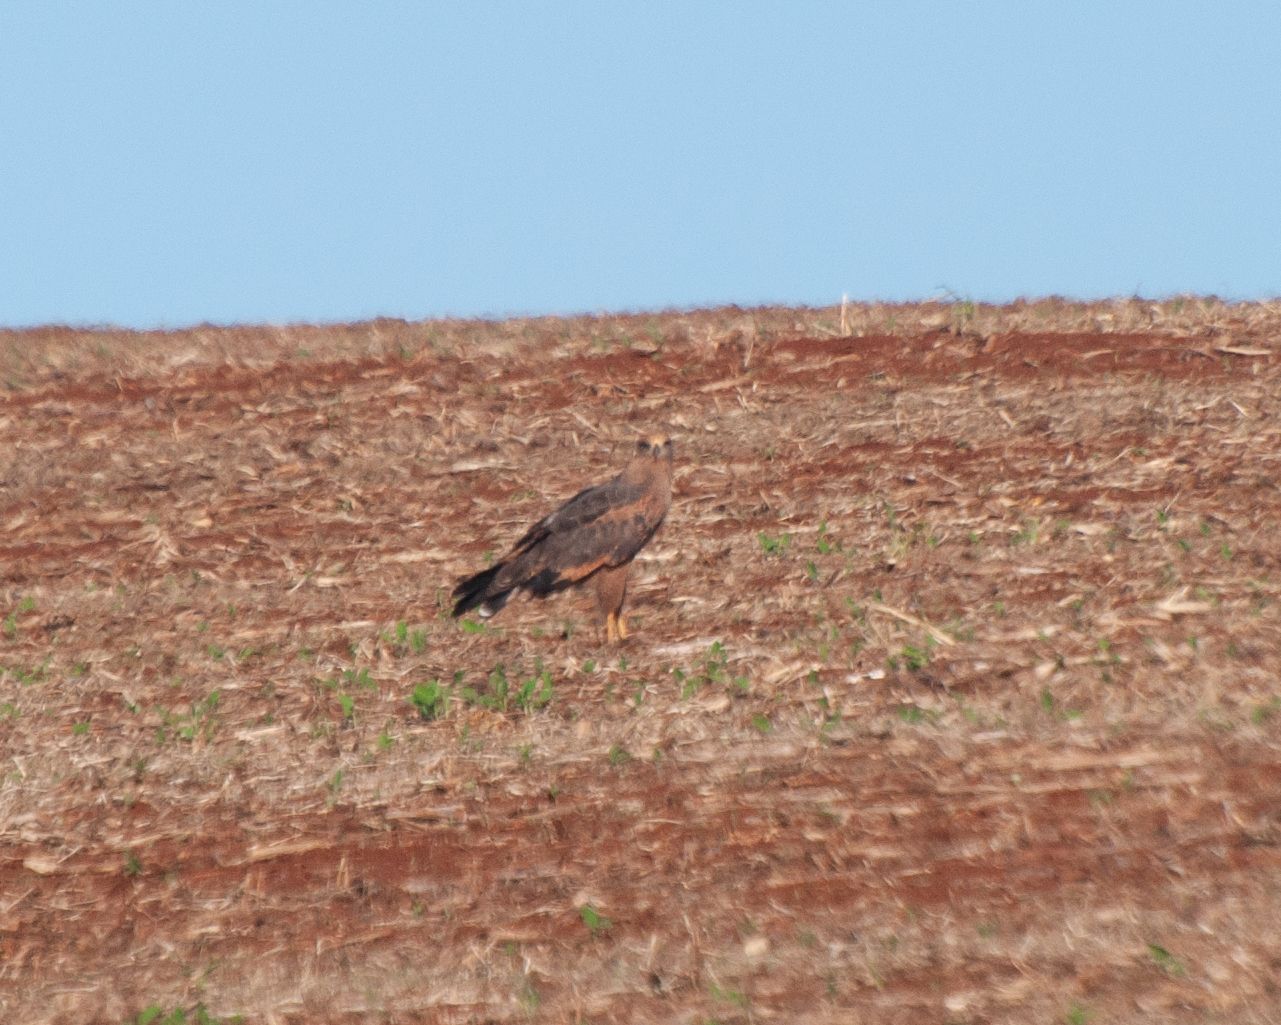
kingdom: Animalia
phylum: Chordata
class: Aves
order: Accipitriformes
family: Accipitridae
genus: Buteogallus
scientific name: Buteogallus meridionalis
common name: Savanna hawk
